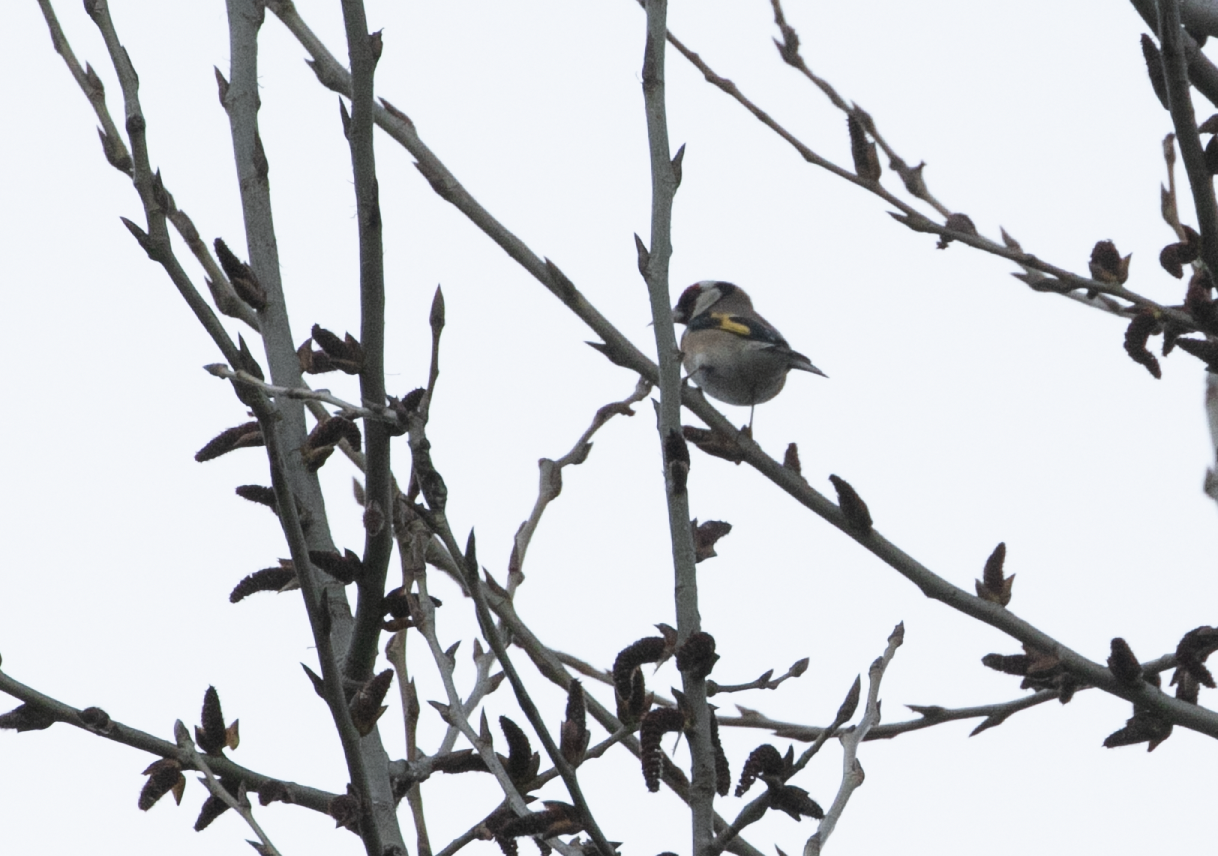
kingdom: Animalia
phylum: Chordata
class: Aves
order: Passeriformes
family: Fringillidae
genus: Carduelis
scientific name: Carduelis carduelis
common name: European goldfinch
